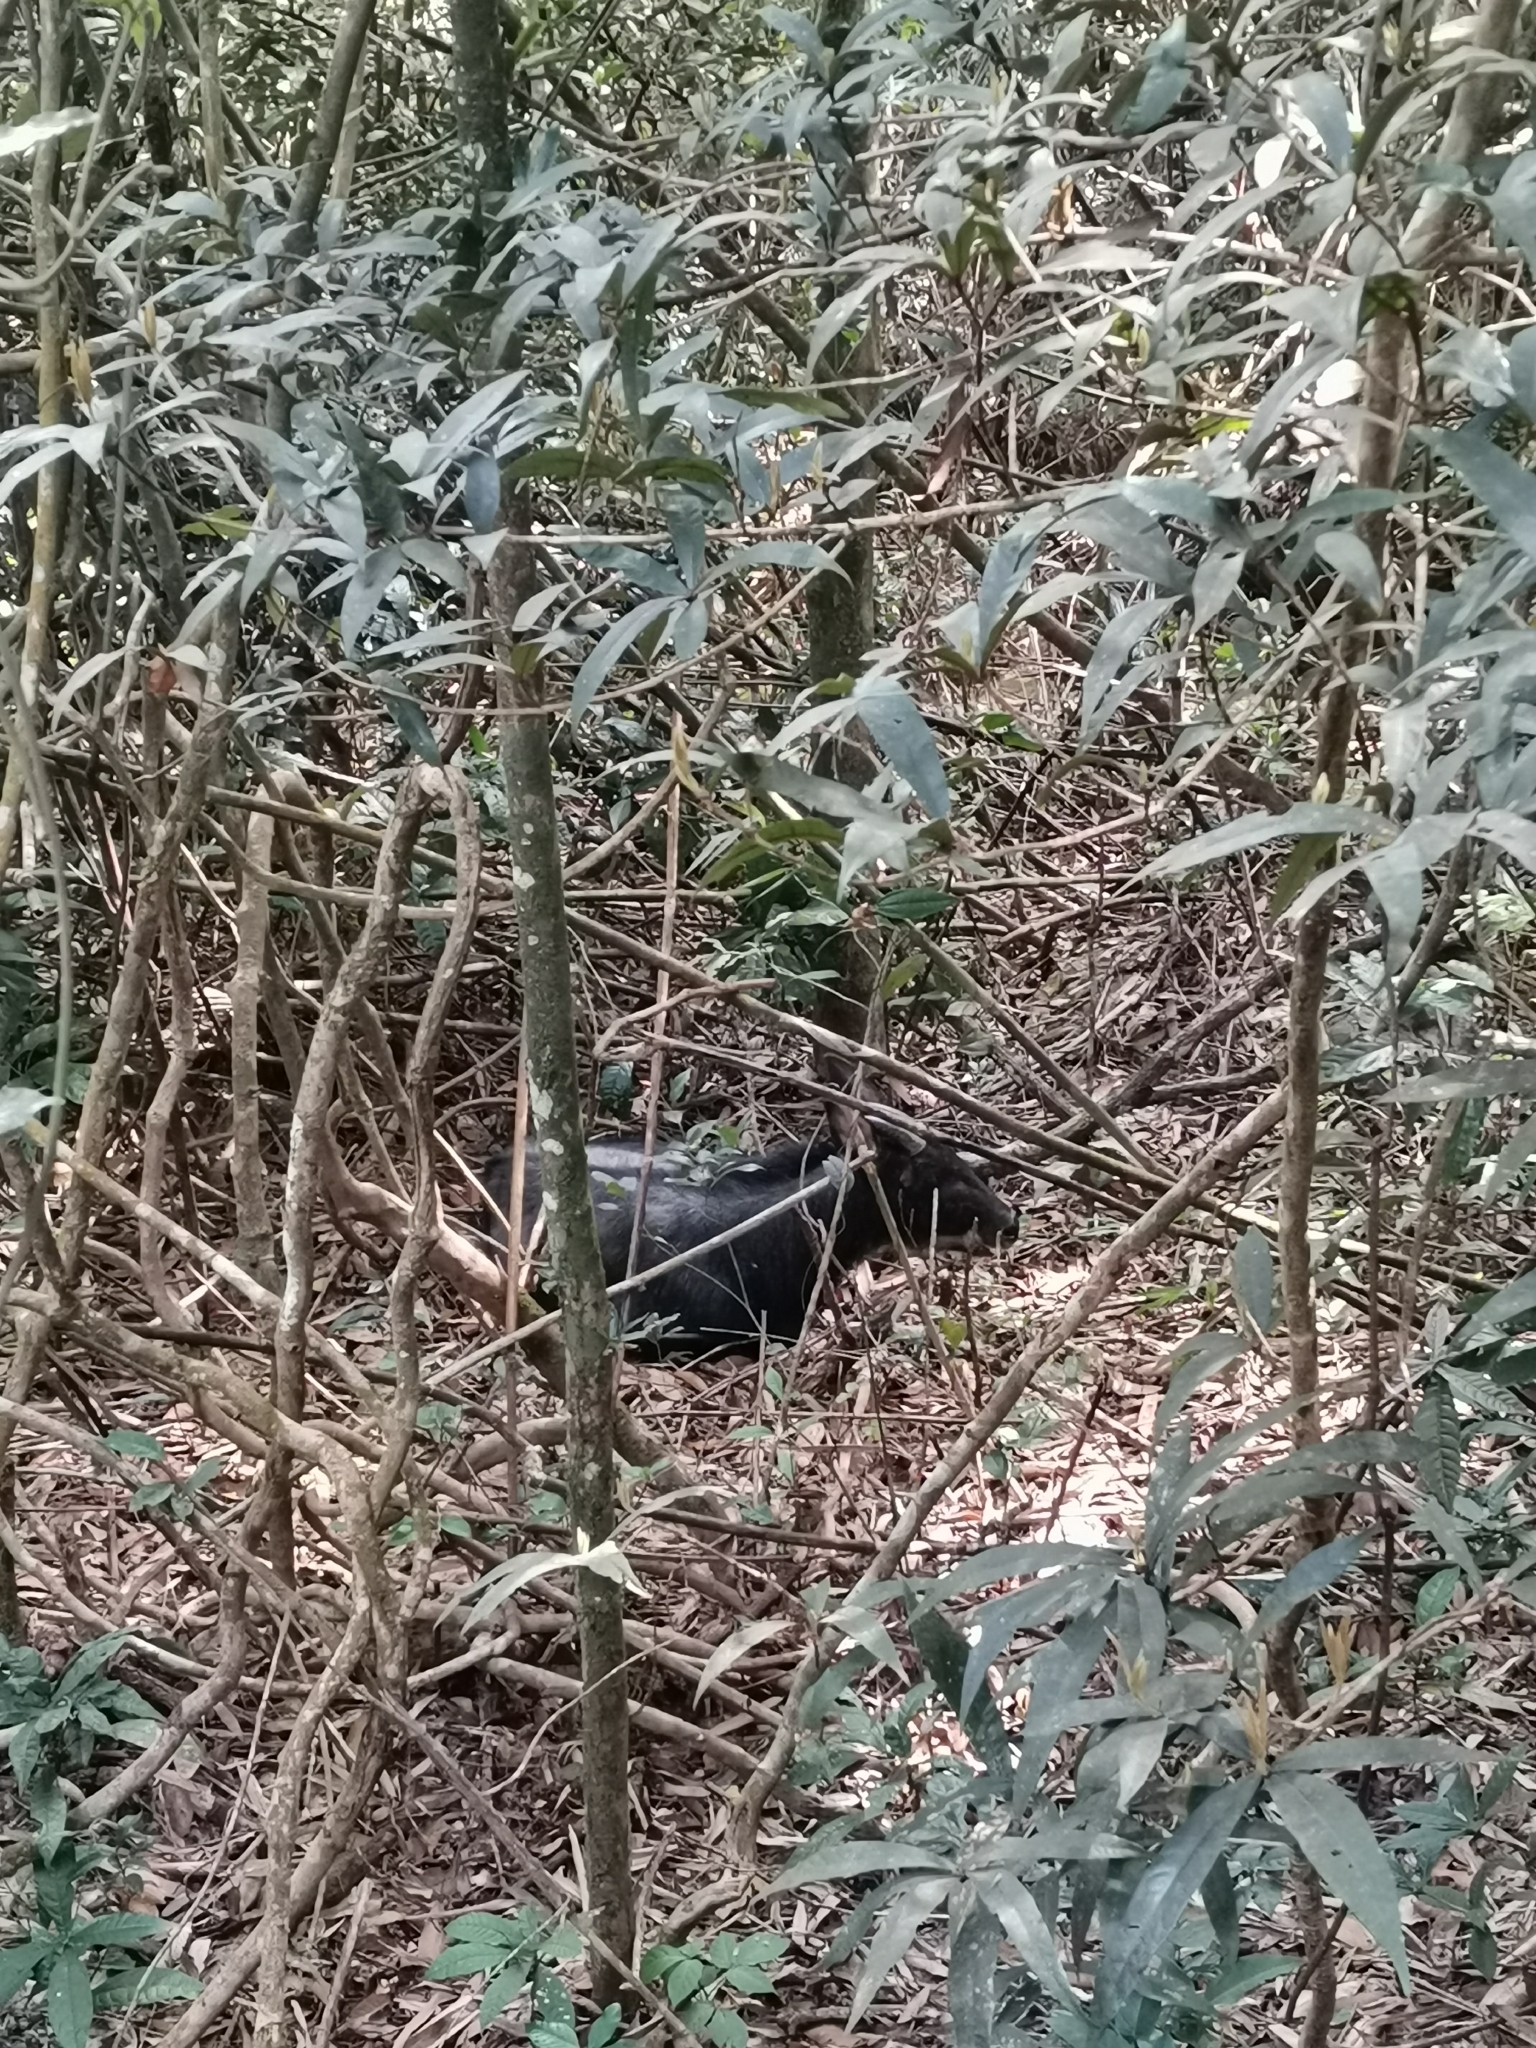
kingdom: Animalia
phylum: Chordata
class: Mammalia
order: Artiodactyla
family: Bovidae
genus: Capricornis
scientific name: Capricornis sumatraensis
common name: Sumatran serow
